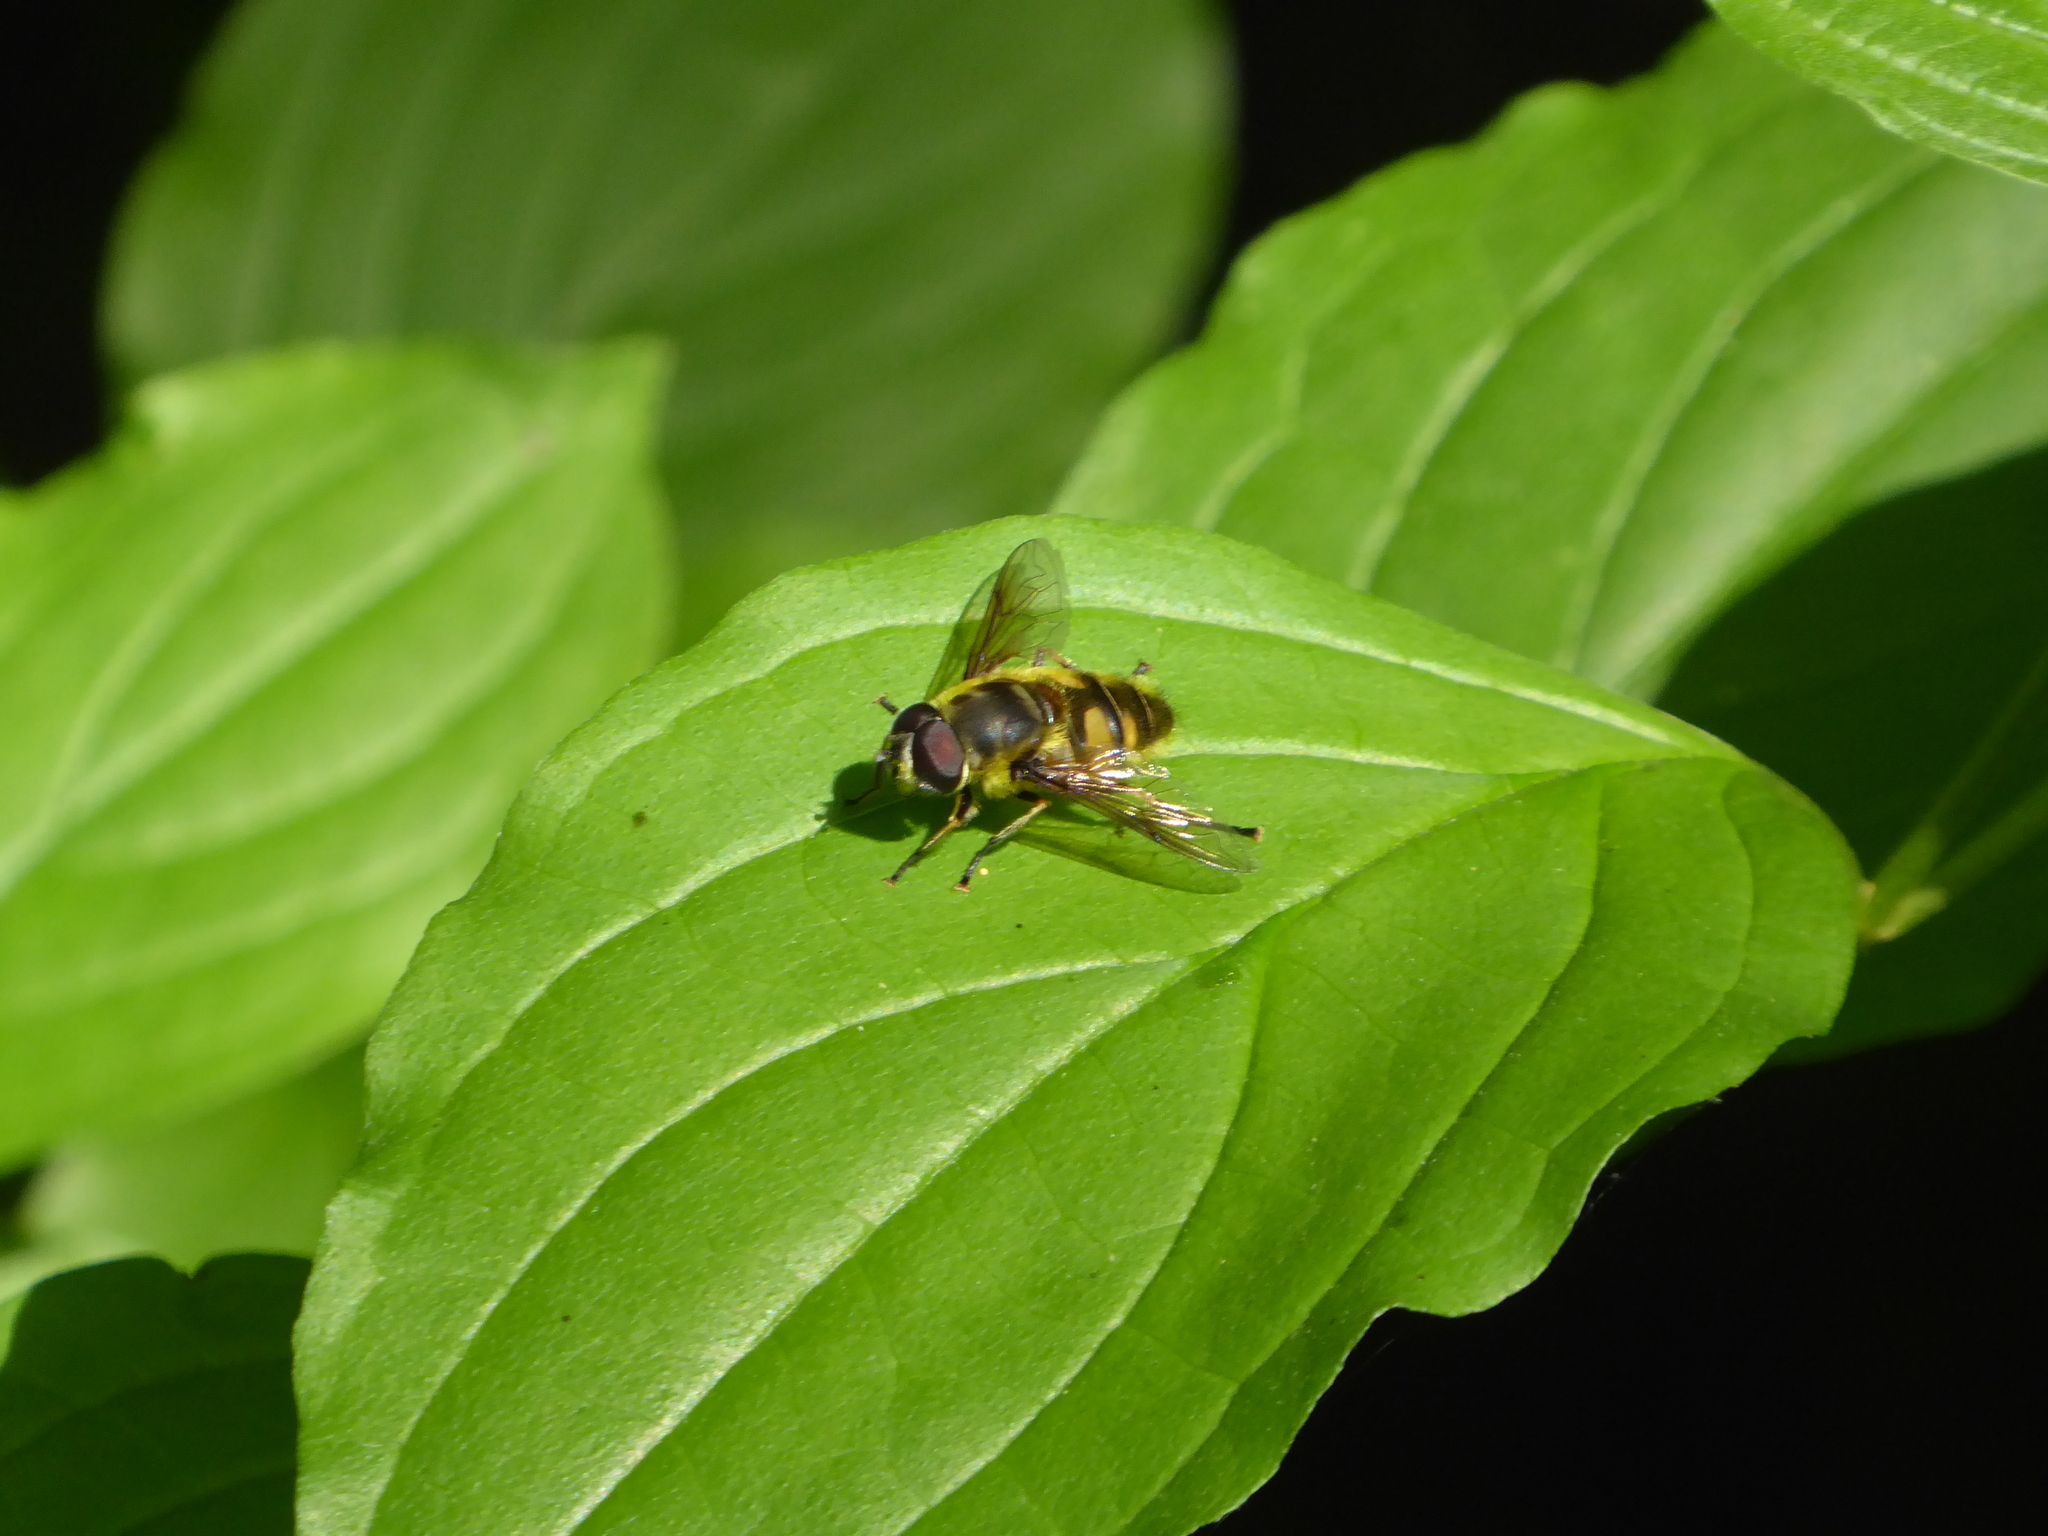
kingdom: Animalia
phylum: Arthropoda
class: Insecta
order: Diptera
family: Syrphidae
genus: Myathropa
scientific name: Myathropa florea
